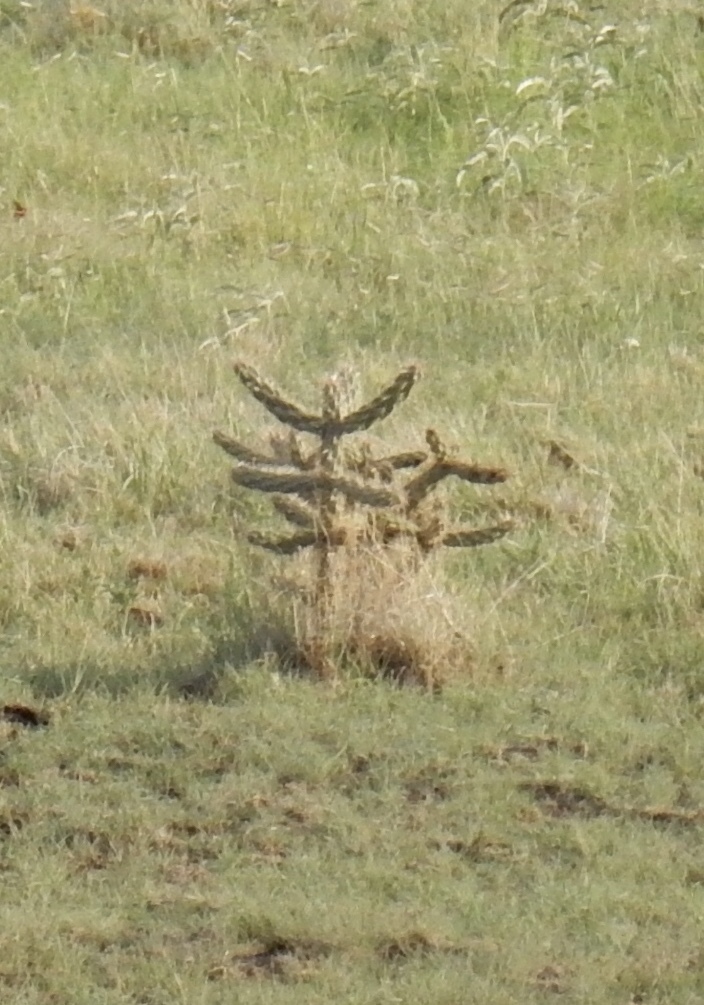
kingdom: Plantae
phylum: Tracheophyta
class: Magnoliopsida
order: Caryophyllales
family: Cactaceae
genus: Cylindropuntia
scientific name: Cylindropuntia imbricata
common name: Candelabrum cactus
